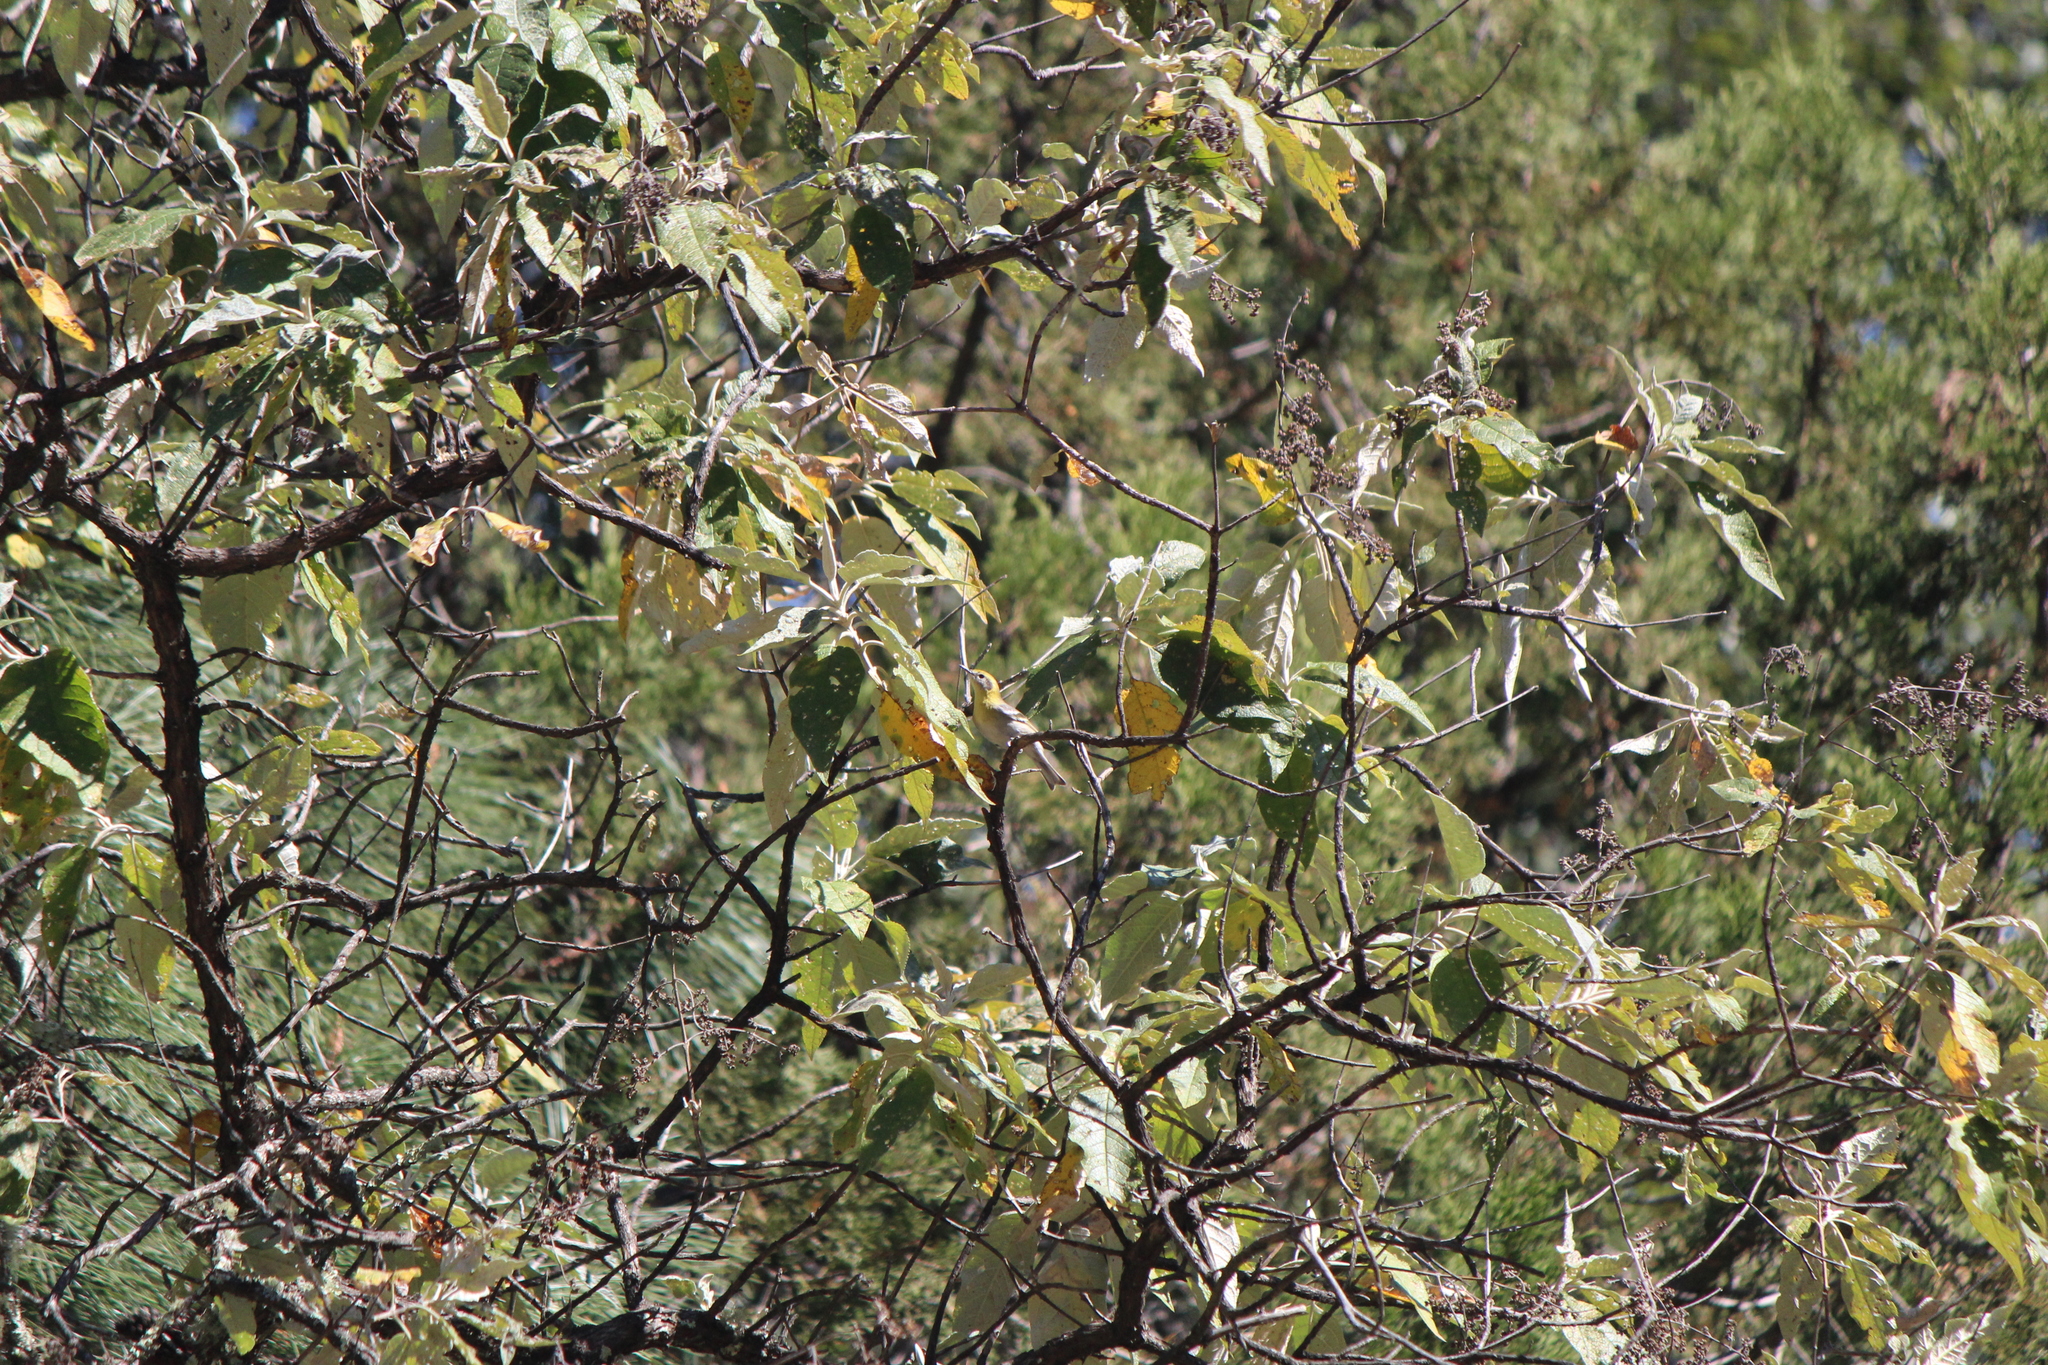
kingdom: Animalia
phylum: Chordata
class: Aves
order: Passeriformes
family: Peucedramidae
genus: Peucedramus
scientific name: Peucedramus taeniatus
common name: Olive warbler
